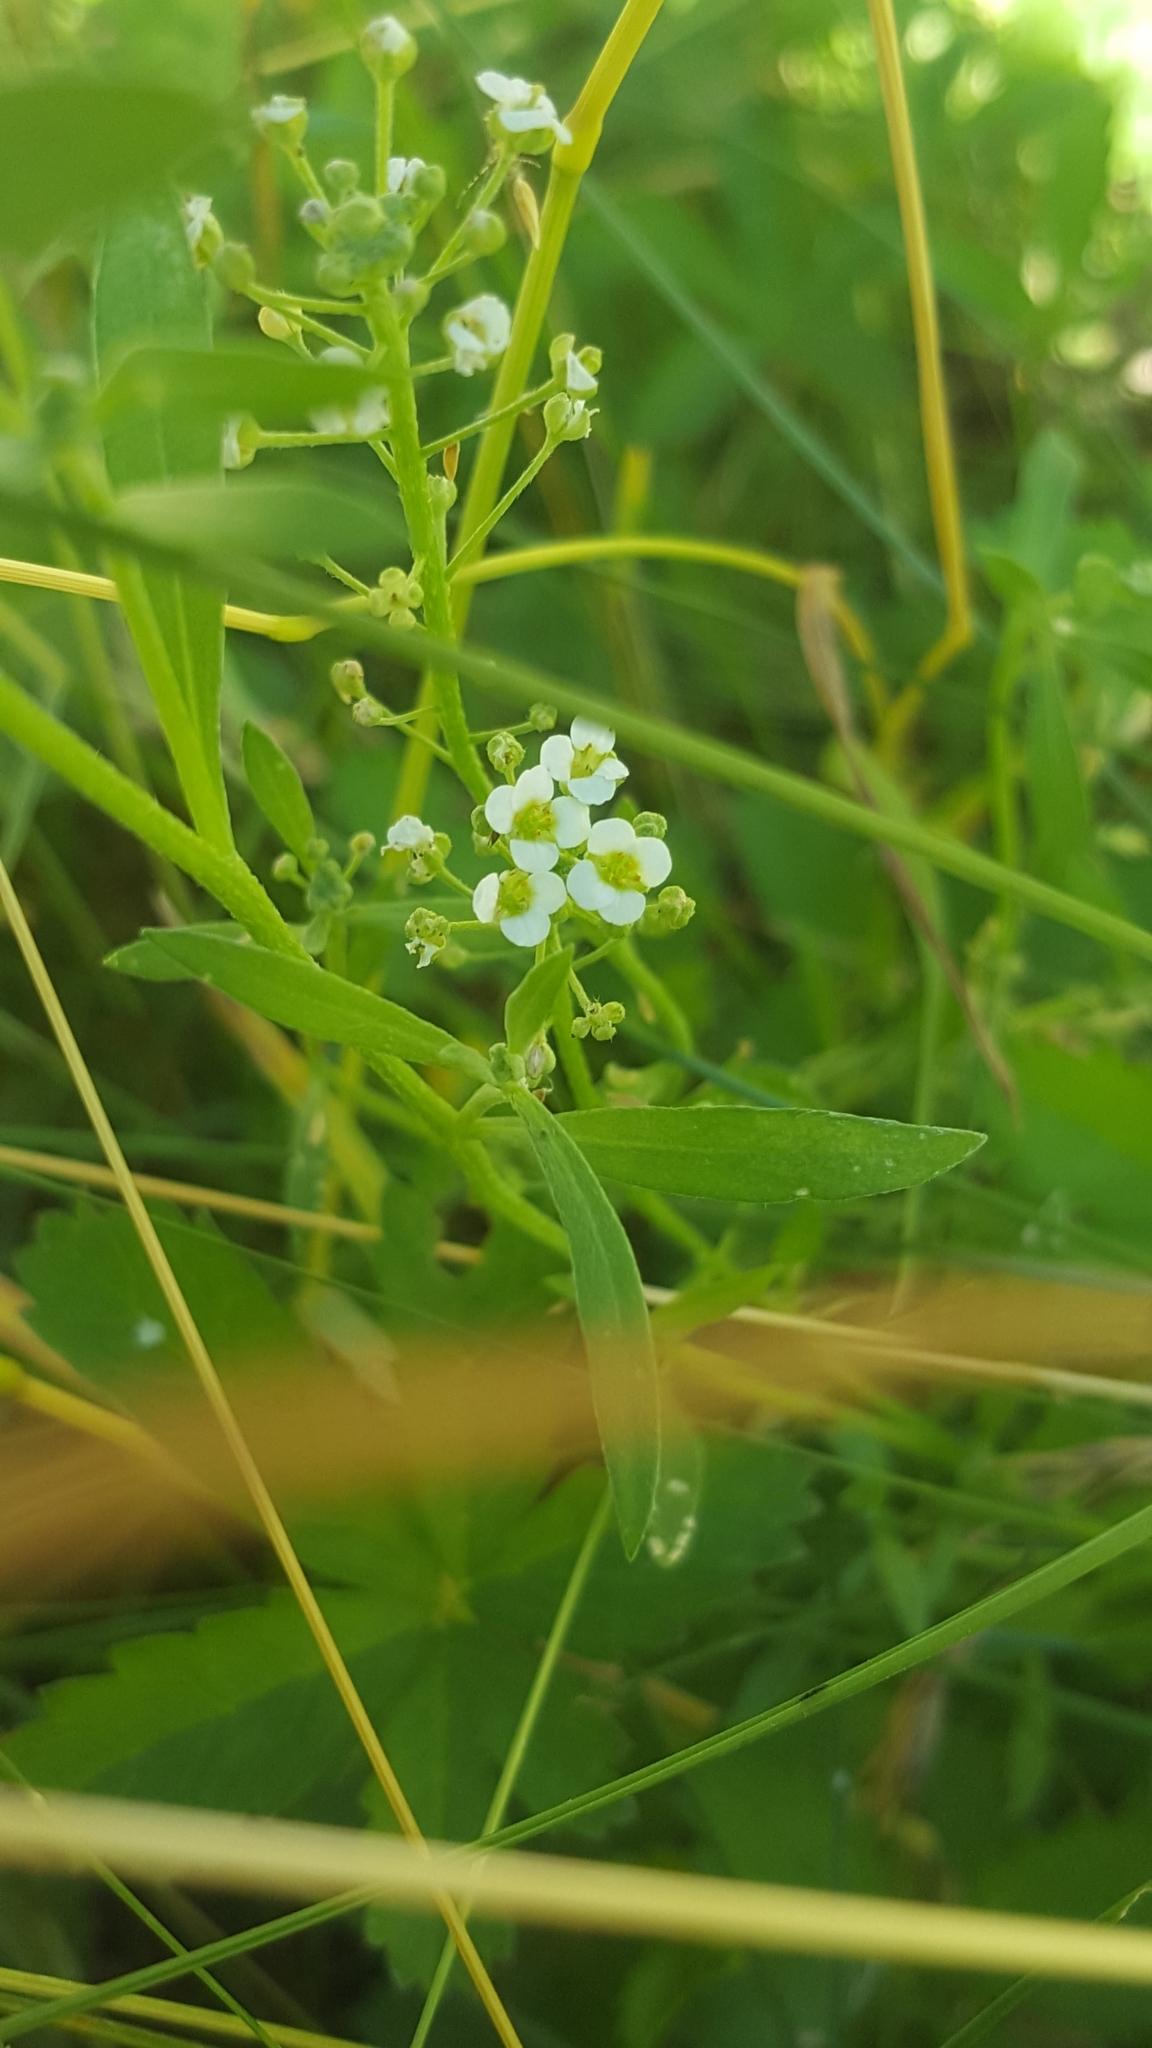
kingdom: Plantae
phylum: Tracheophyta
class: Magnoliopsida
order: Brassicales
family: Brassicaceae
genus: Lobularia
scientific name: Lobularia maritima
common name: Sweet alison
